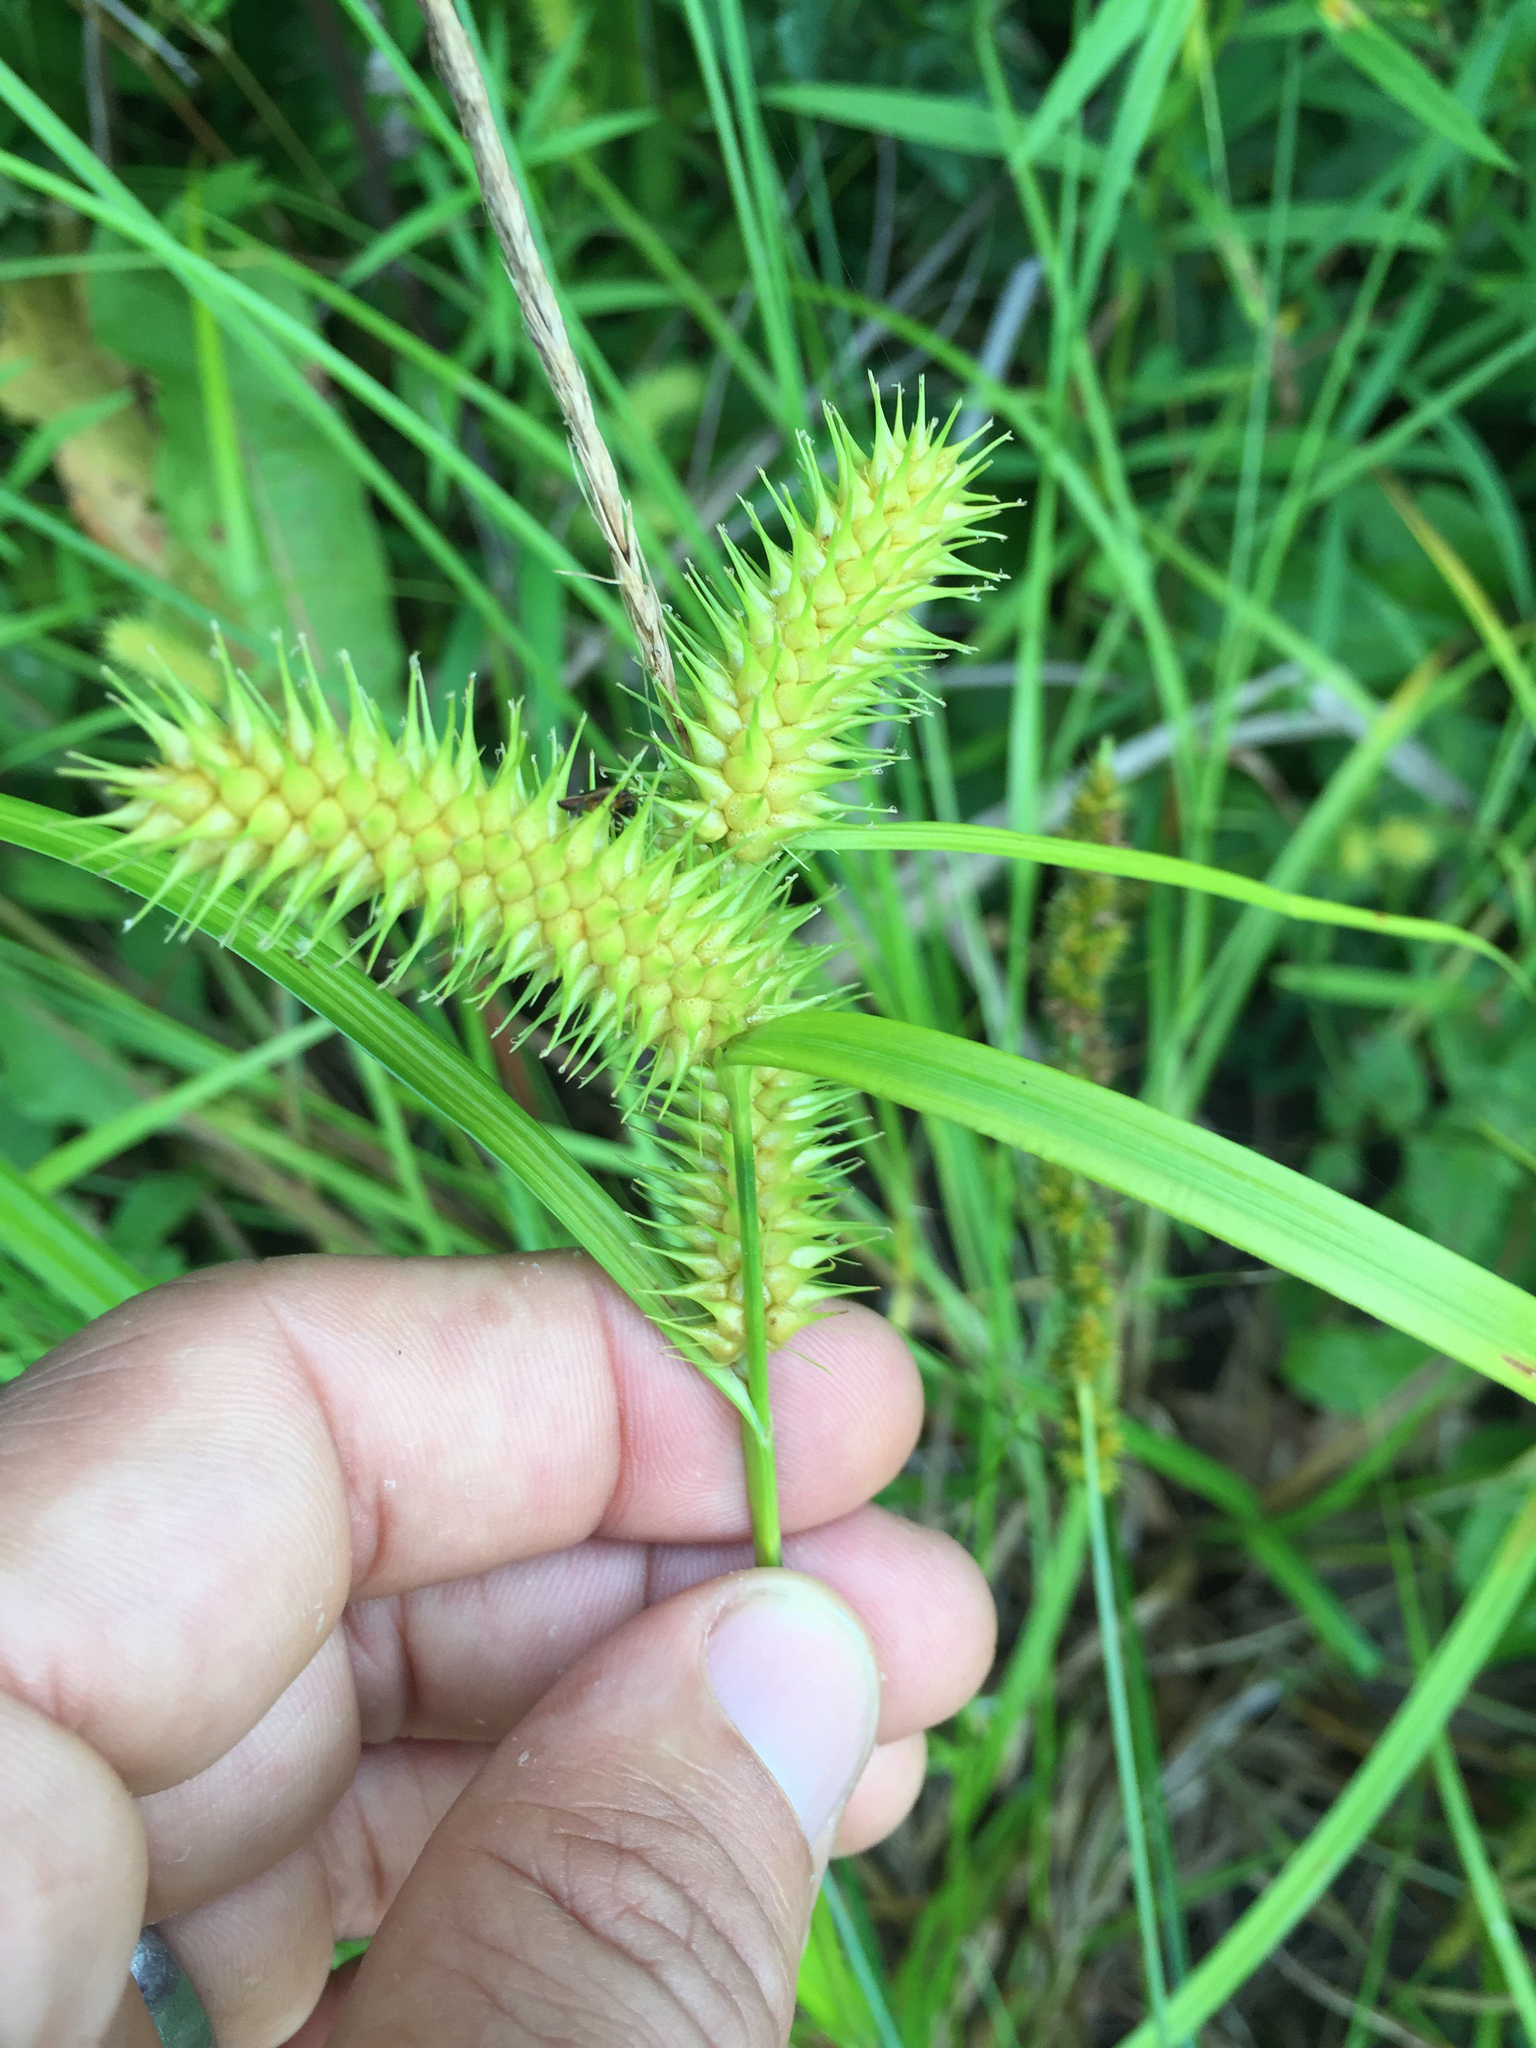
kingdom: Plantae
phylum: Tracheophyta
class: Liliopsida
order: Poales
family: Cyperaceae
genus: Carex
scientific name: Carex lurida
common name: Sallow sedge
